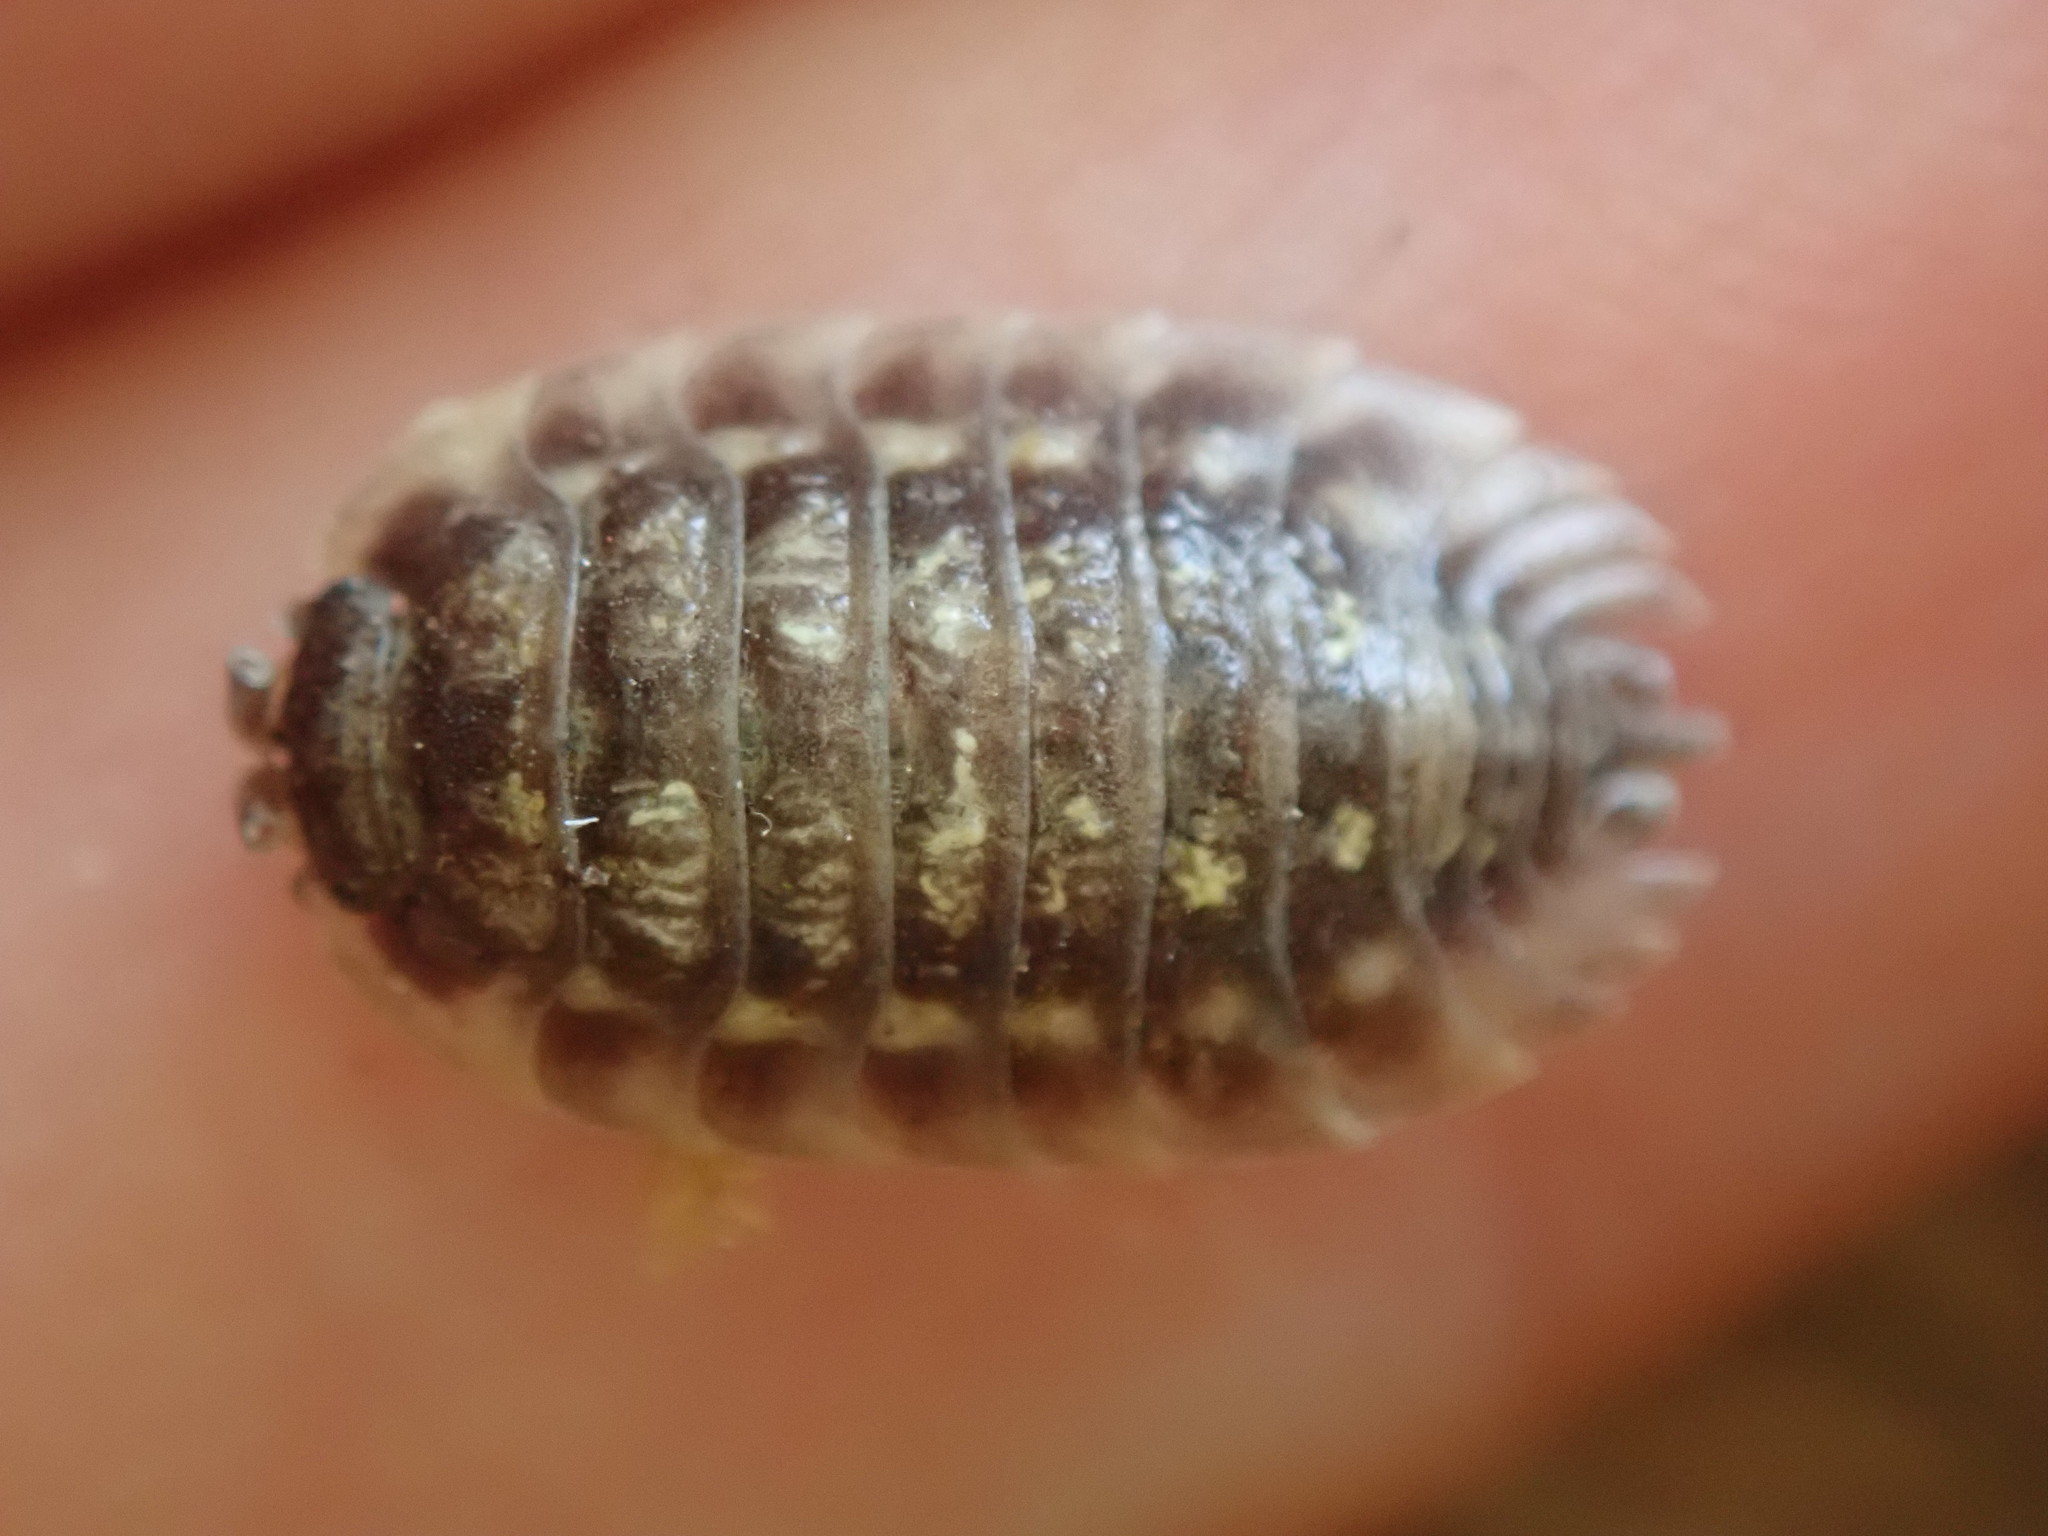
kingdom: Animalia
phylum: Arthropoda
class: Malacostraca
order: Isopoda
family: Oniscidae
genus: Oniscus
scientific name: Oniscus asellus
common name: Common shiny woodlouse
